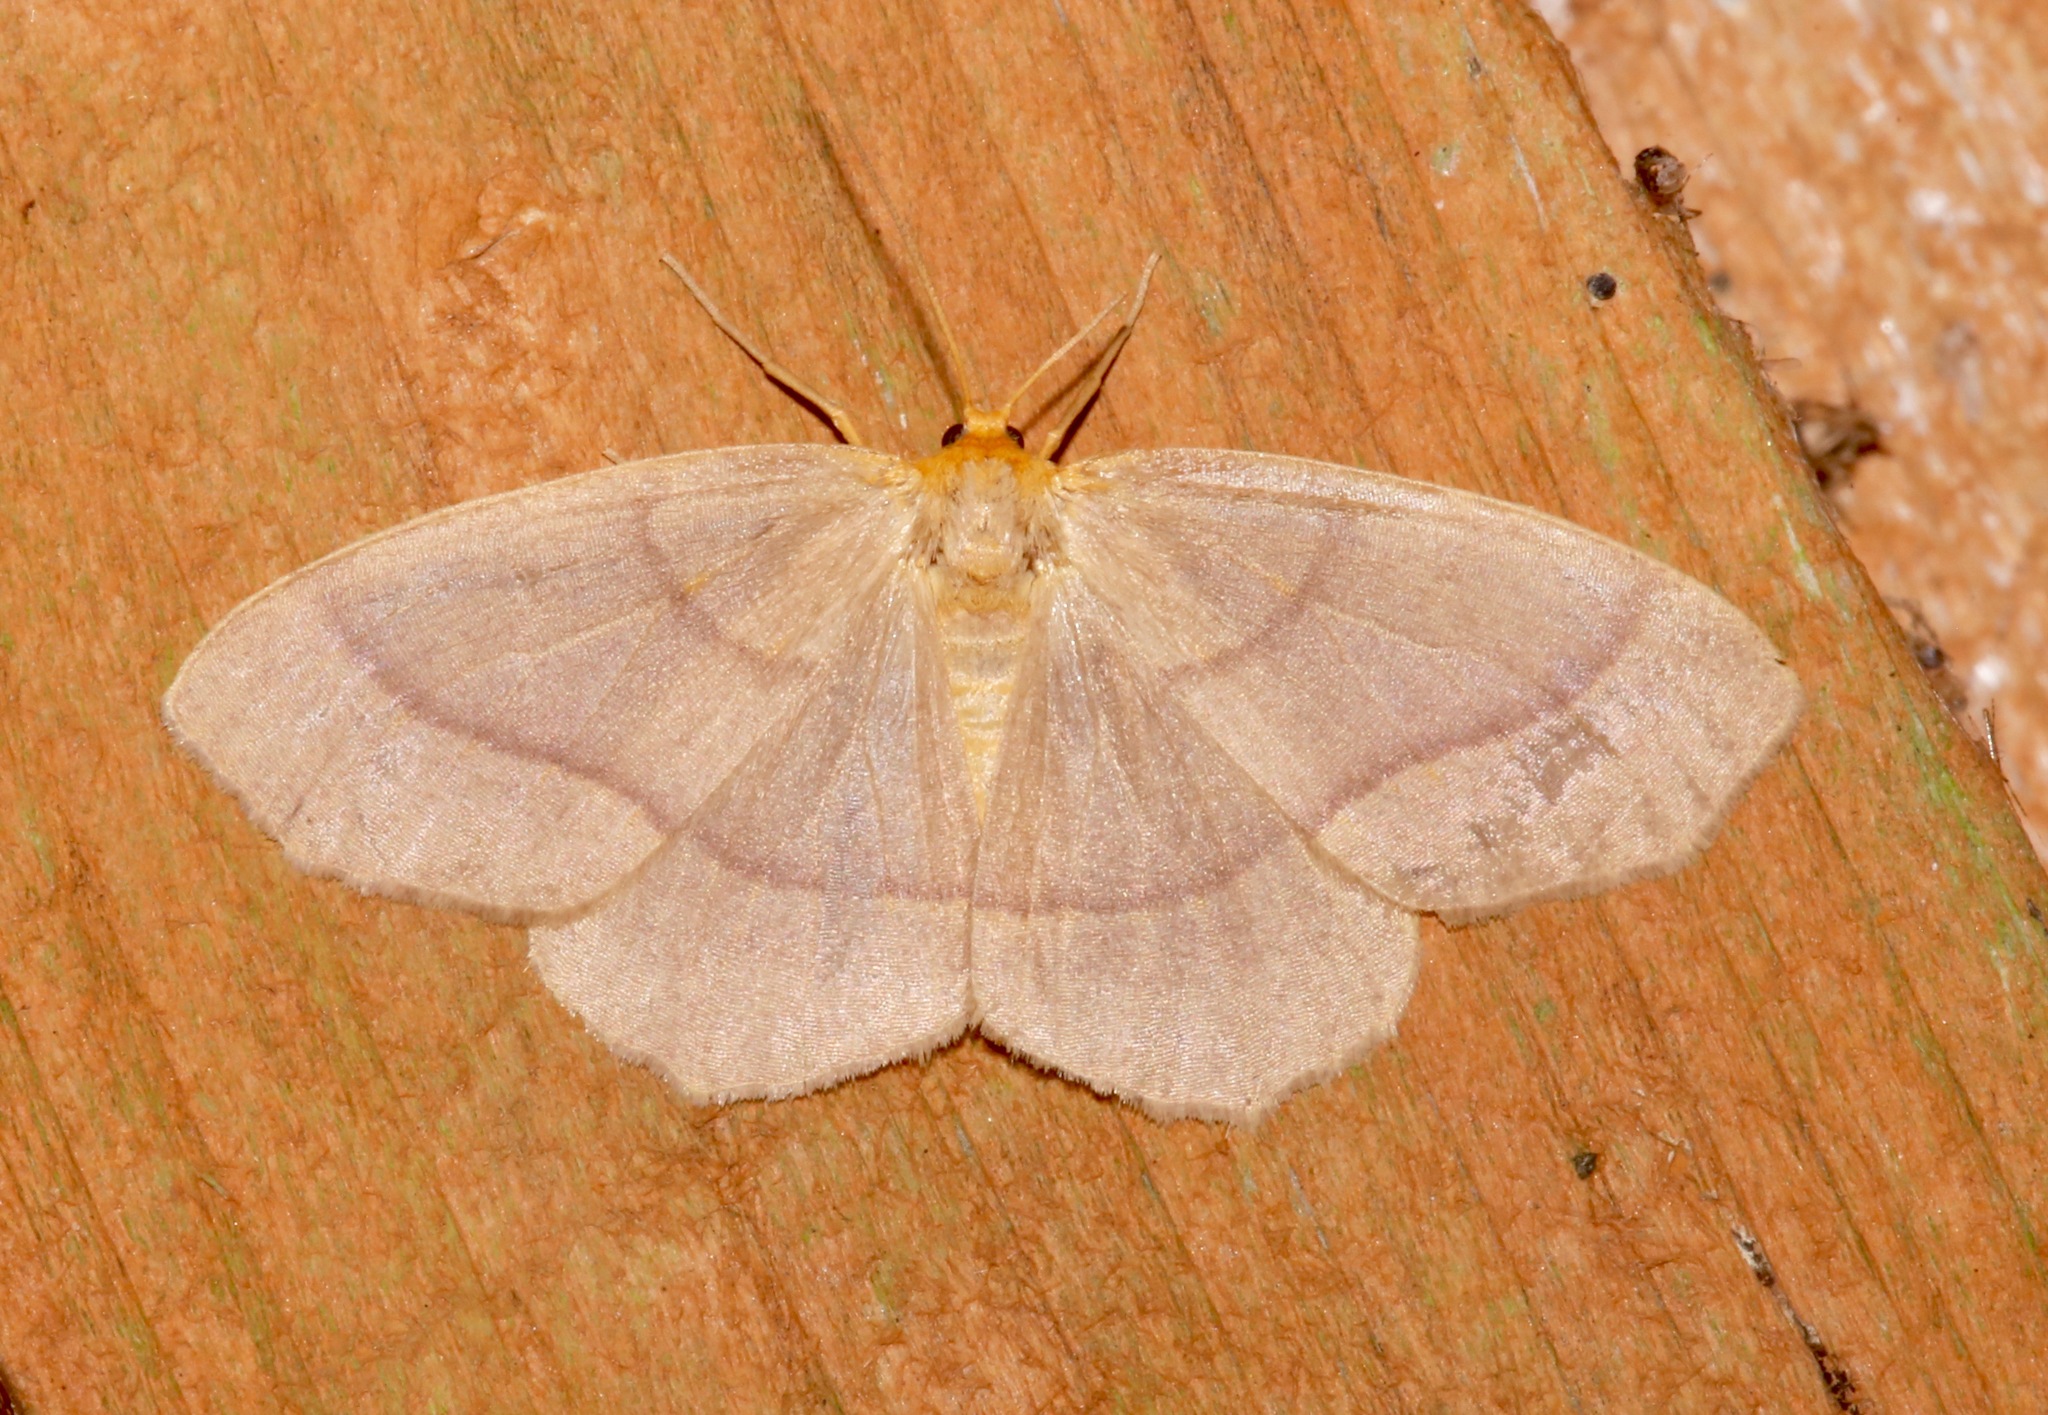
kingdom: Animalia
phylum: Arthropoda
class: Insecta
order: Lepidoptera
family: Geometridae
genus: Lambdina
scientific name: Lambdina pultaria
